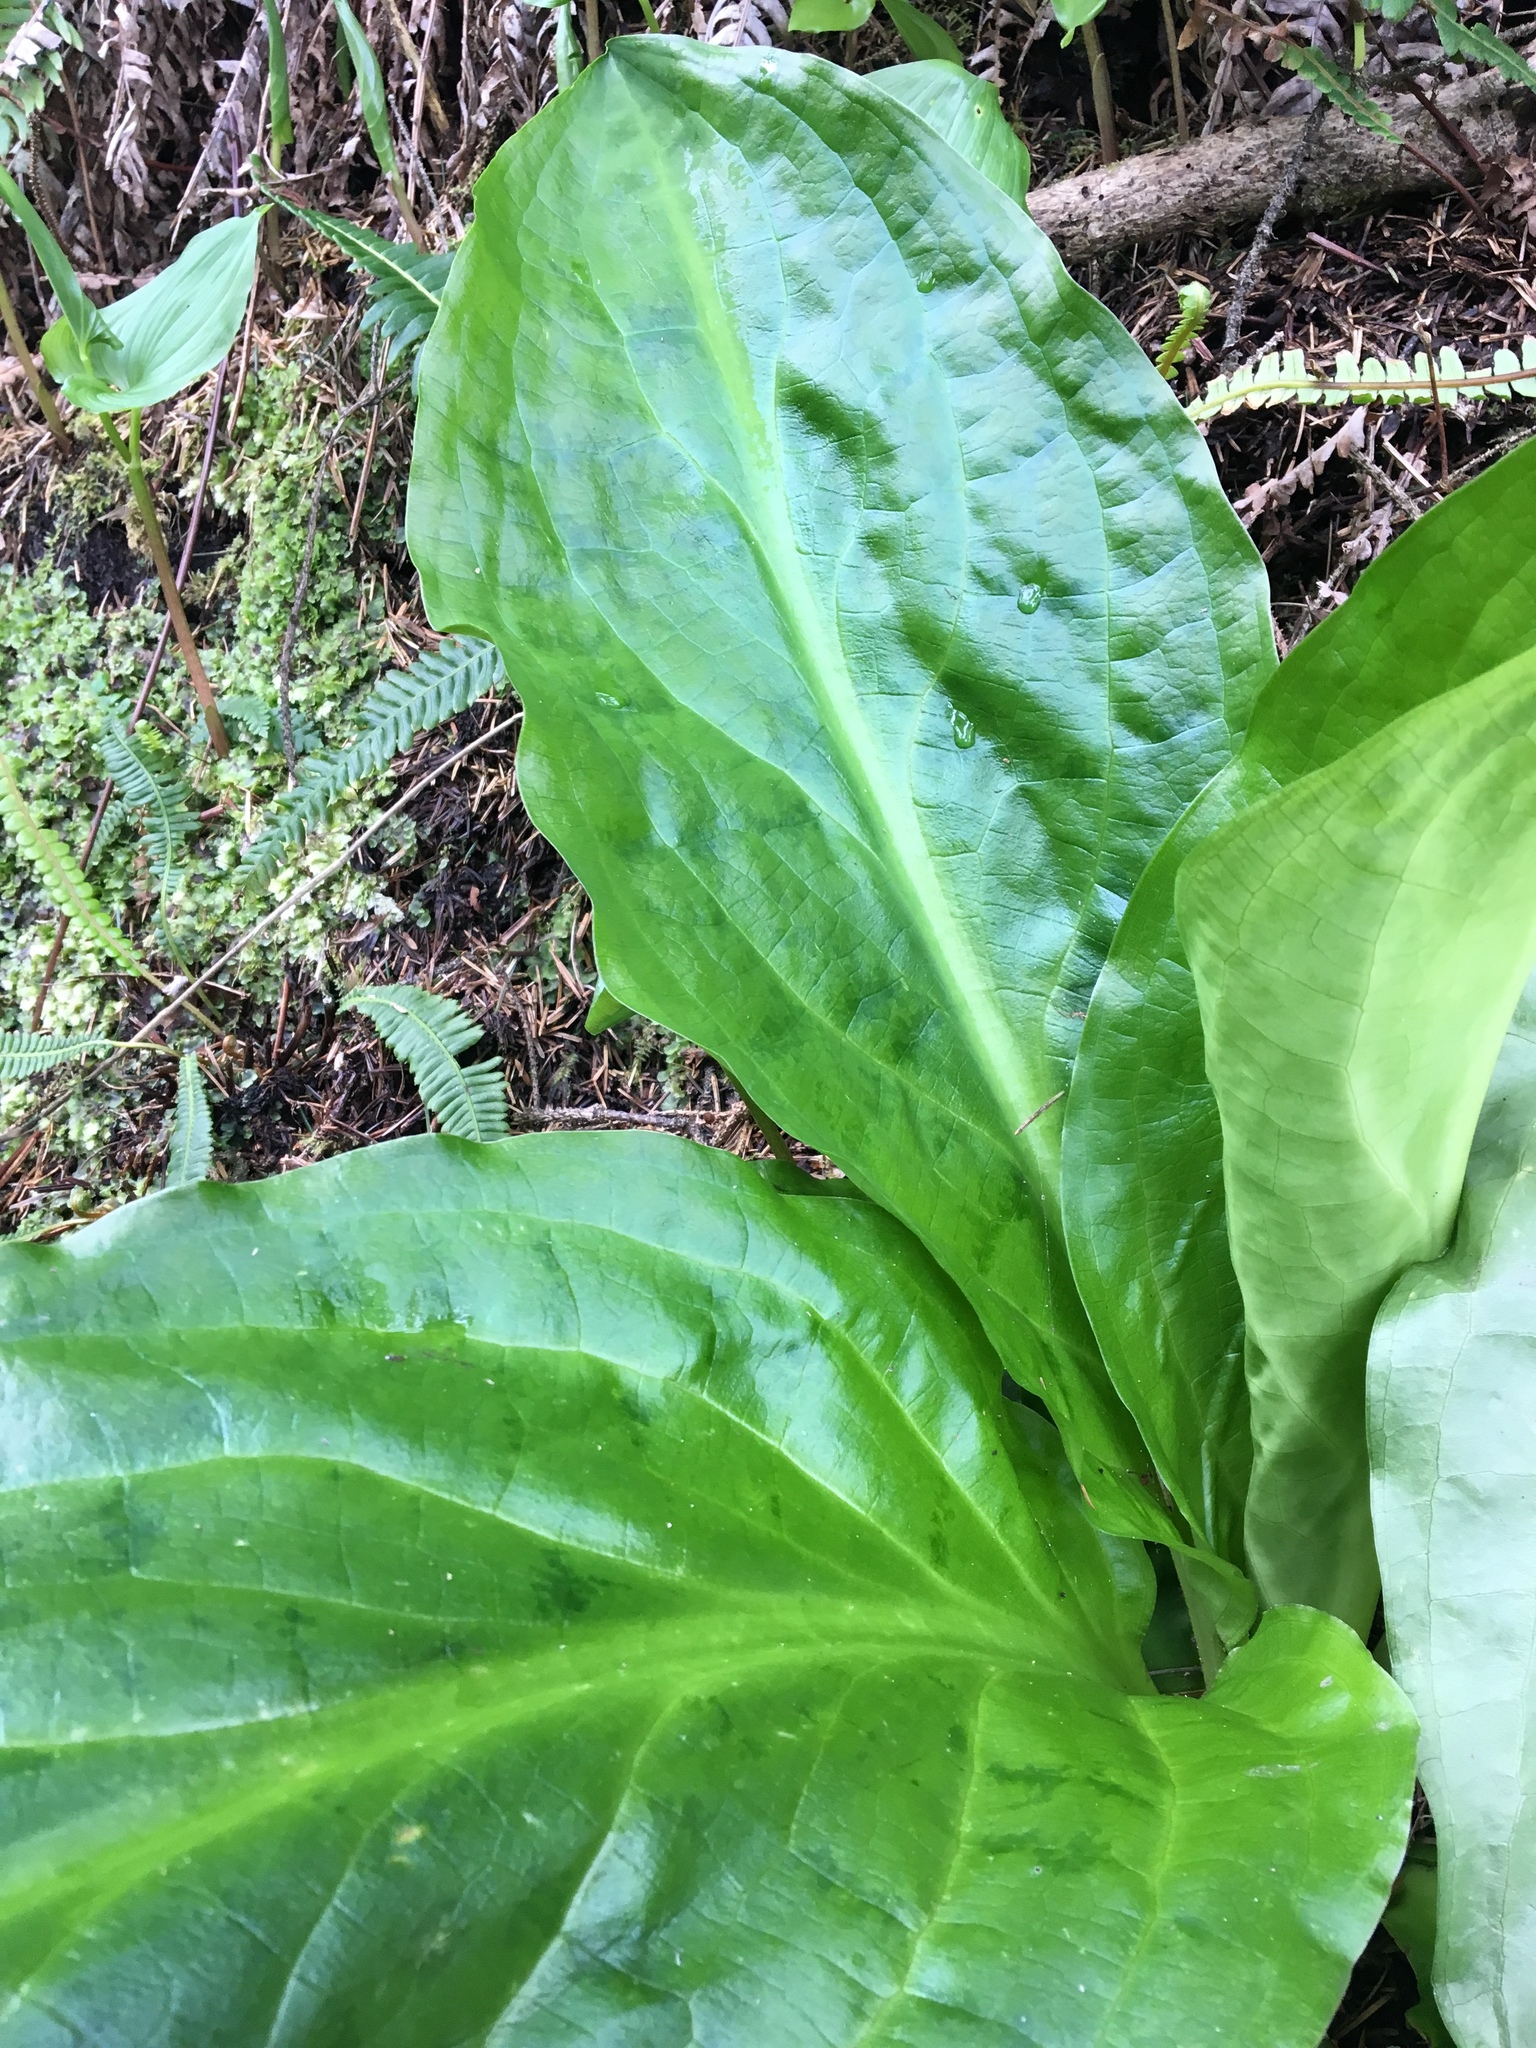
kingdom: Plantae
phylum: Tracheophyta
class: Liliopsida
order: Alismatales
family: Araceae
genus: Lysichiton
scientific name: Lysichiton americanus
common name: American skunk cabbage
